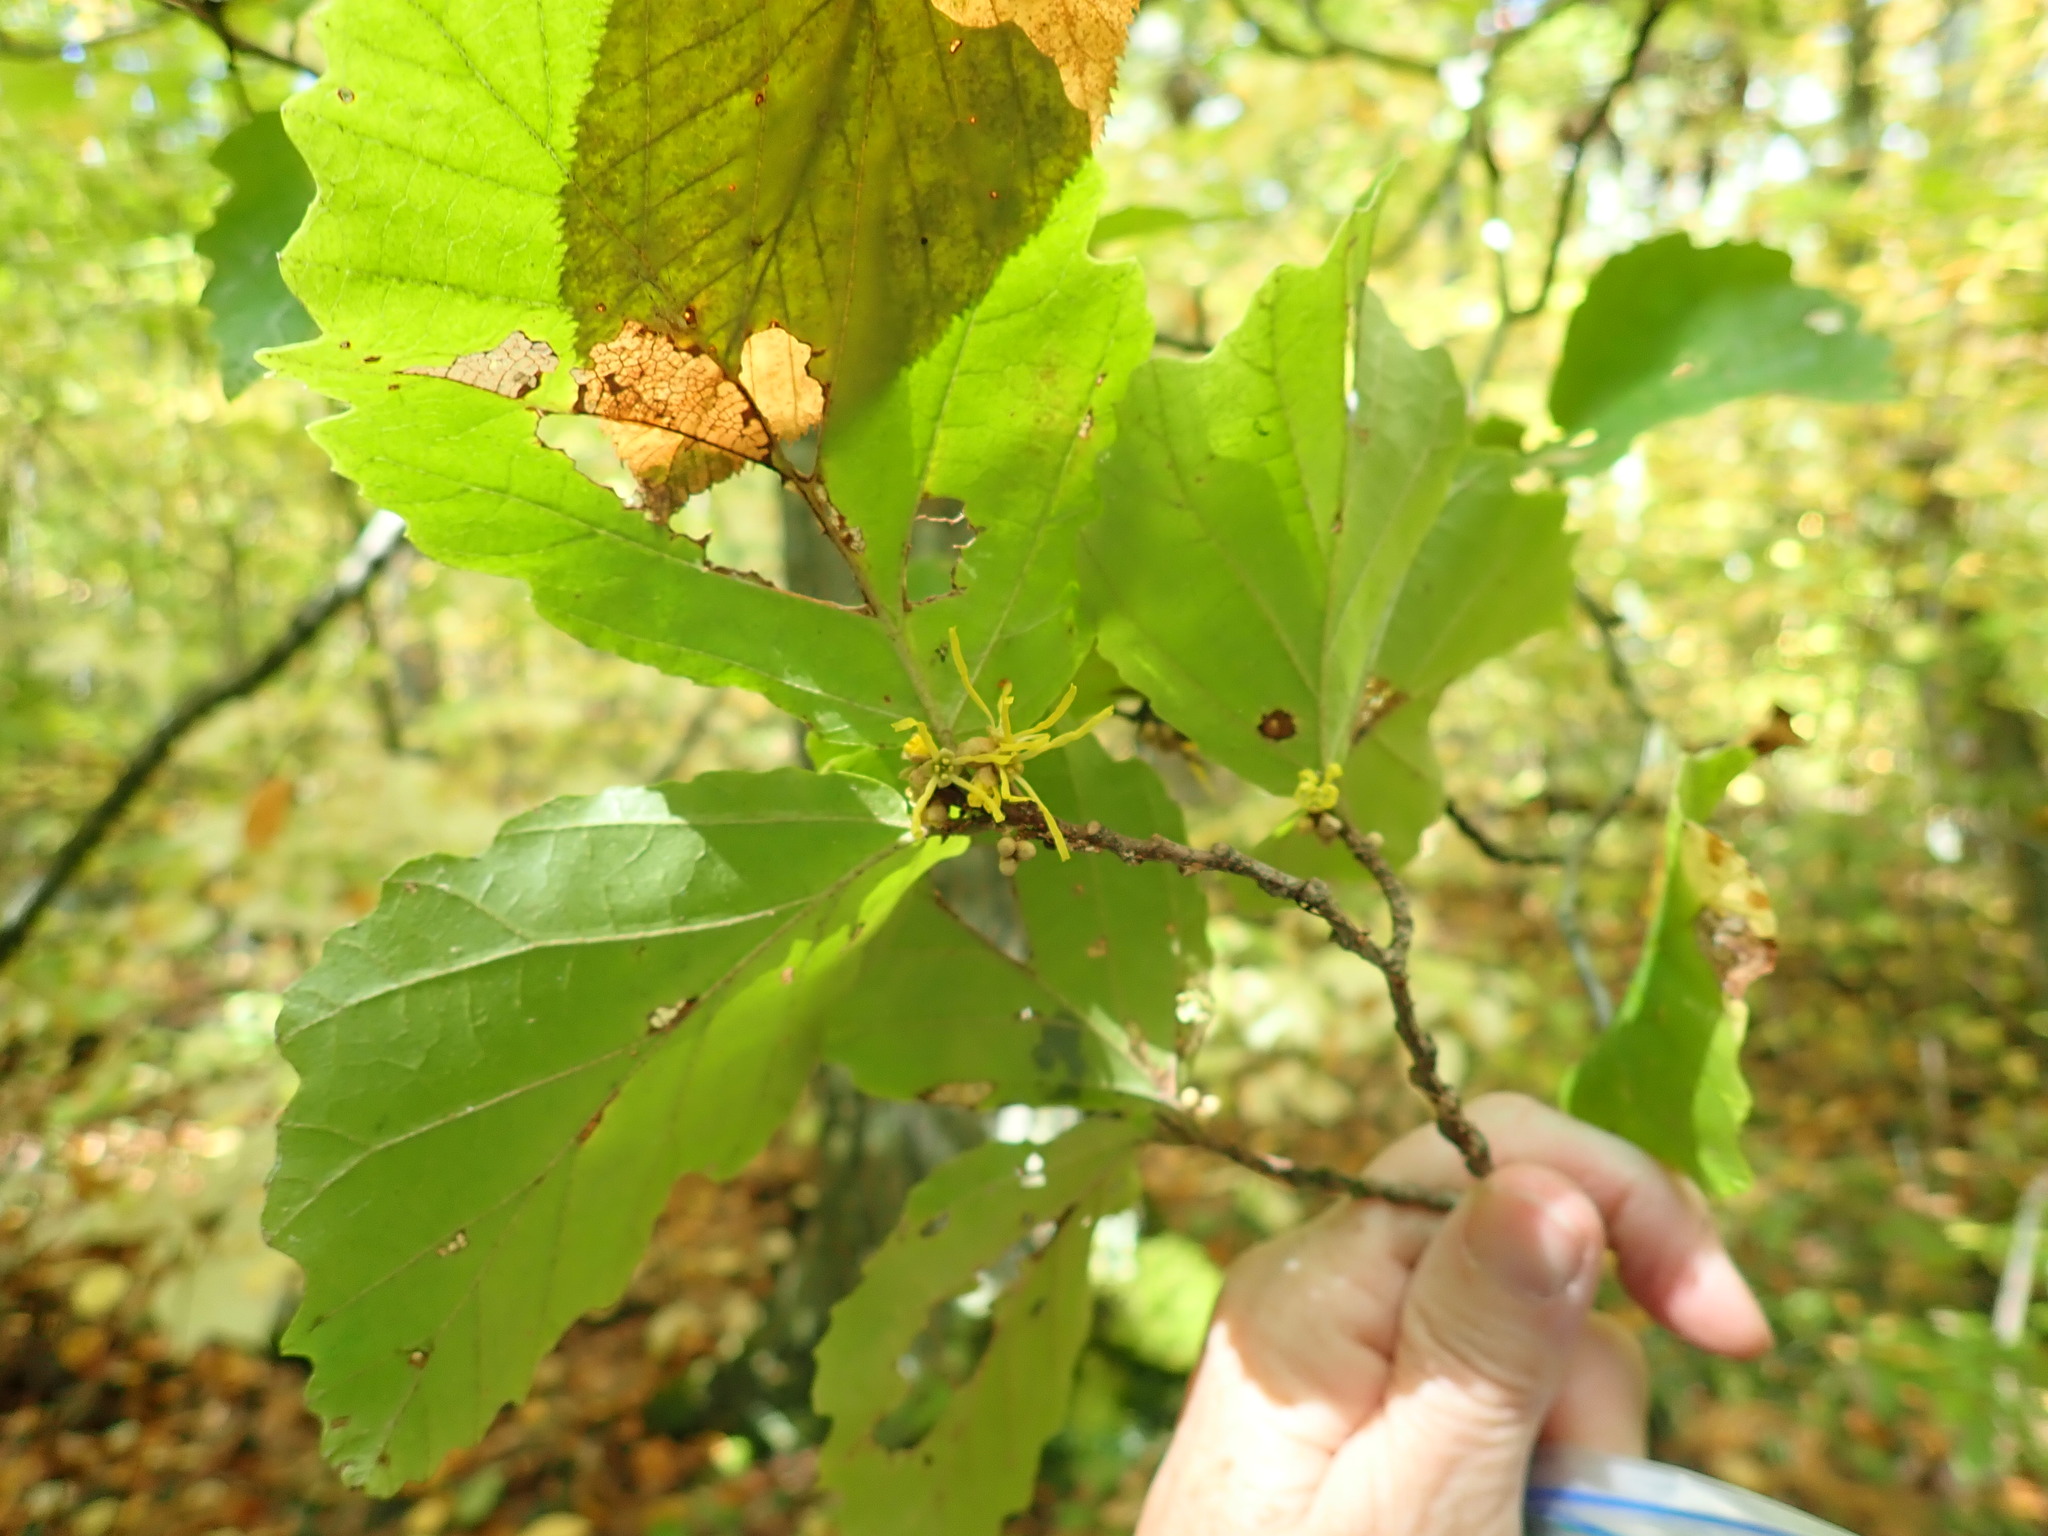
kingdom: Plantae
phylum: Tracheophyta
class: Magnoliopsida
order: Saxifragales
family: Hamamelidaceae
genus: Hamamelis
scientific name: Hamamelis virginiana
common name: Witch-hazel
